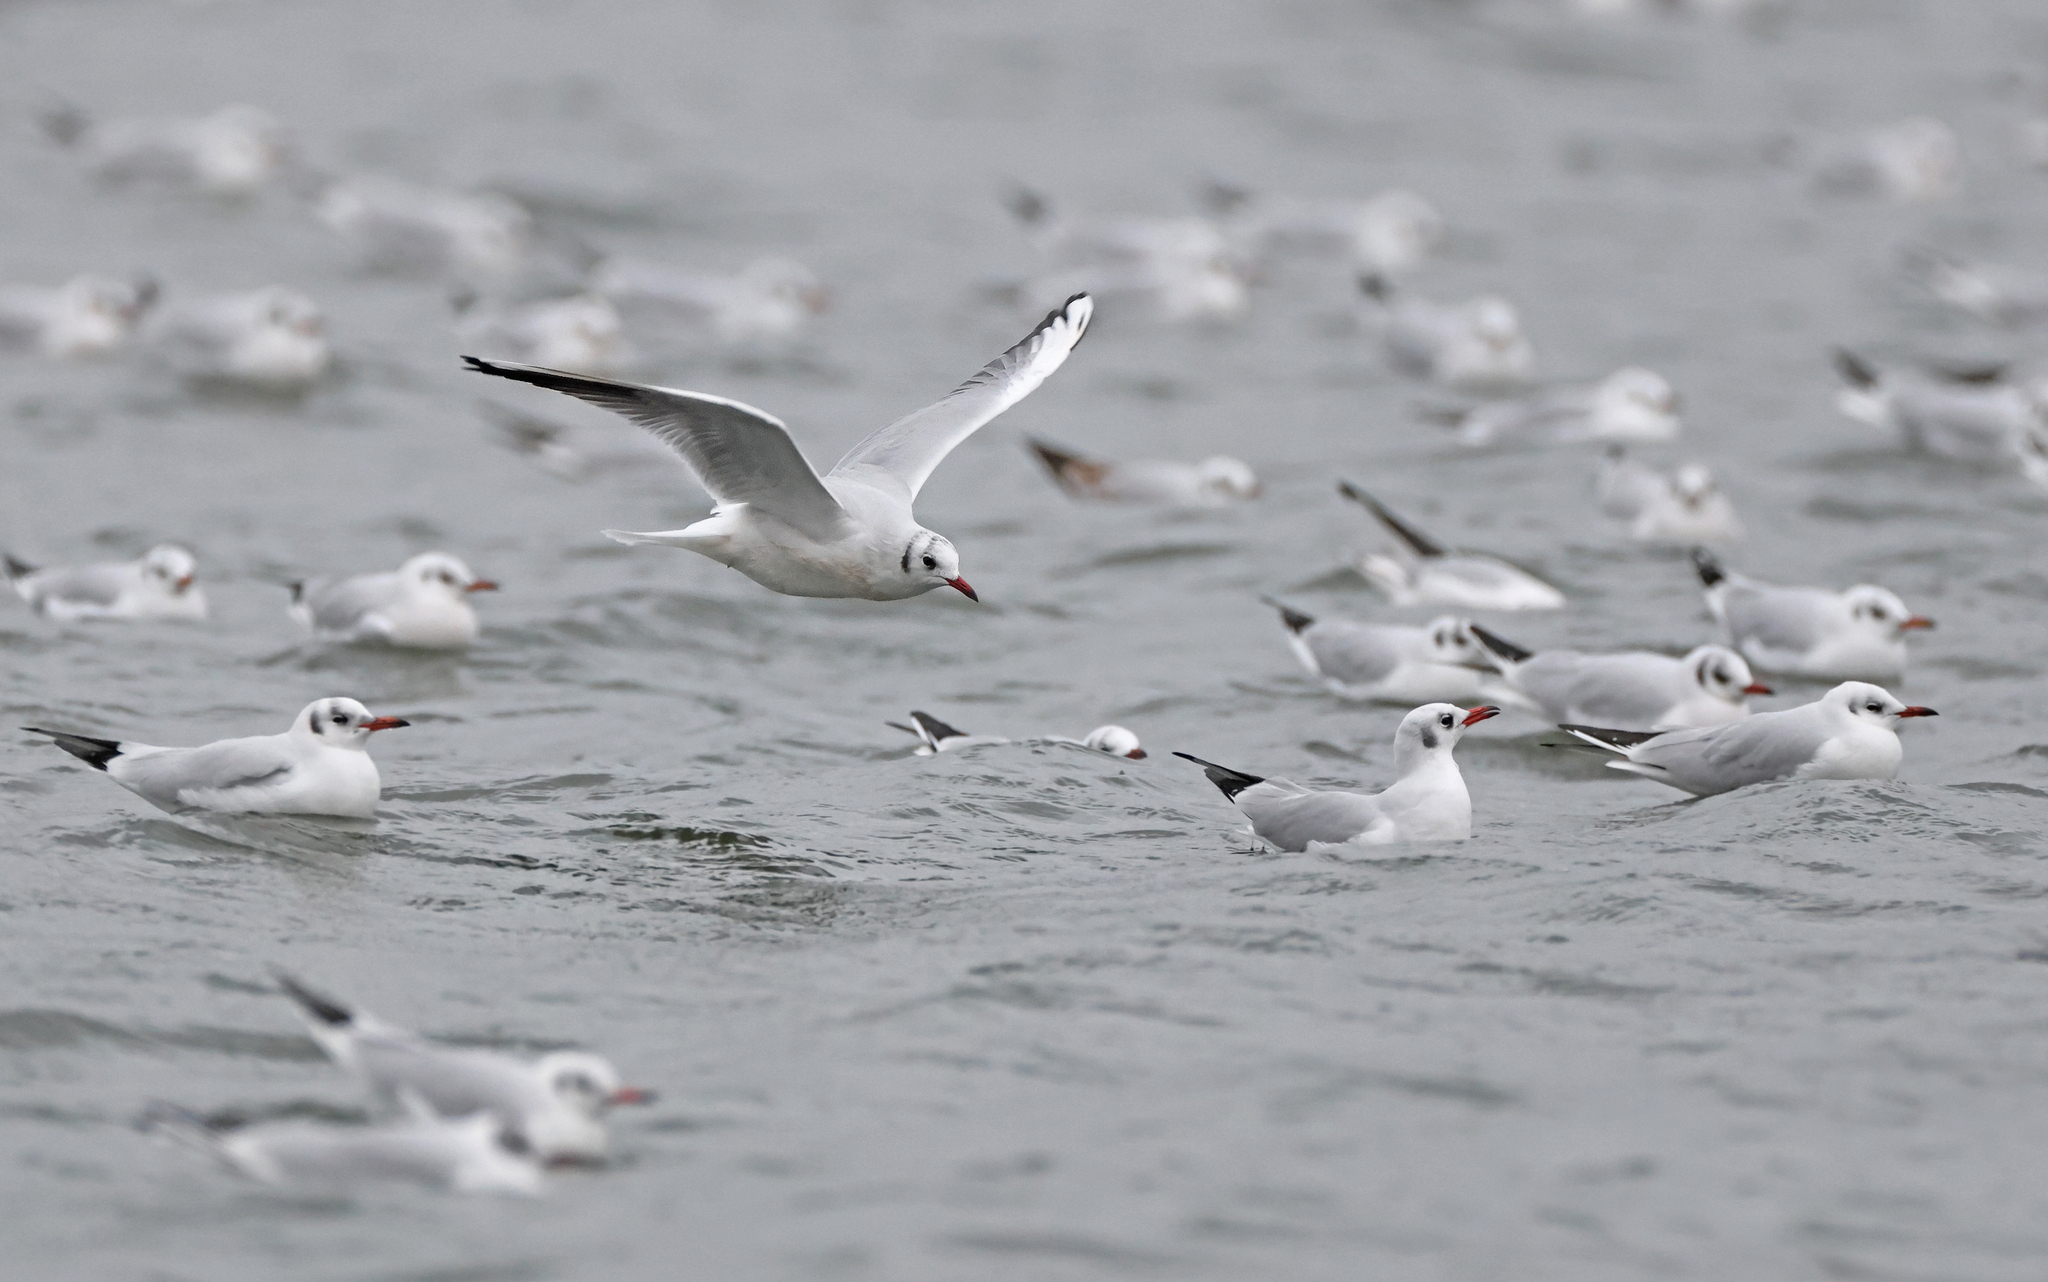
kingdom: Animalia
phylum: Chordata
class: Aves
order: Charadriiformes
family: Laridae
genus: Chroicocephalus
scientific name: Chroicocephalus ridibundus
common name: Black-headed gull
